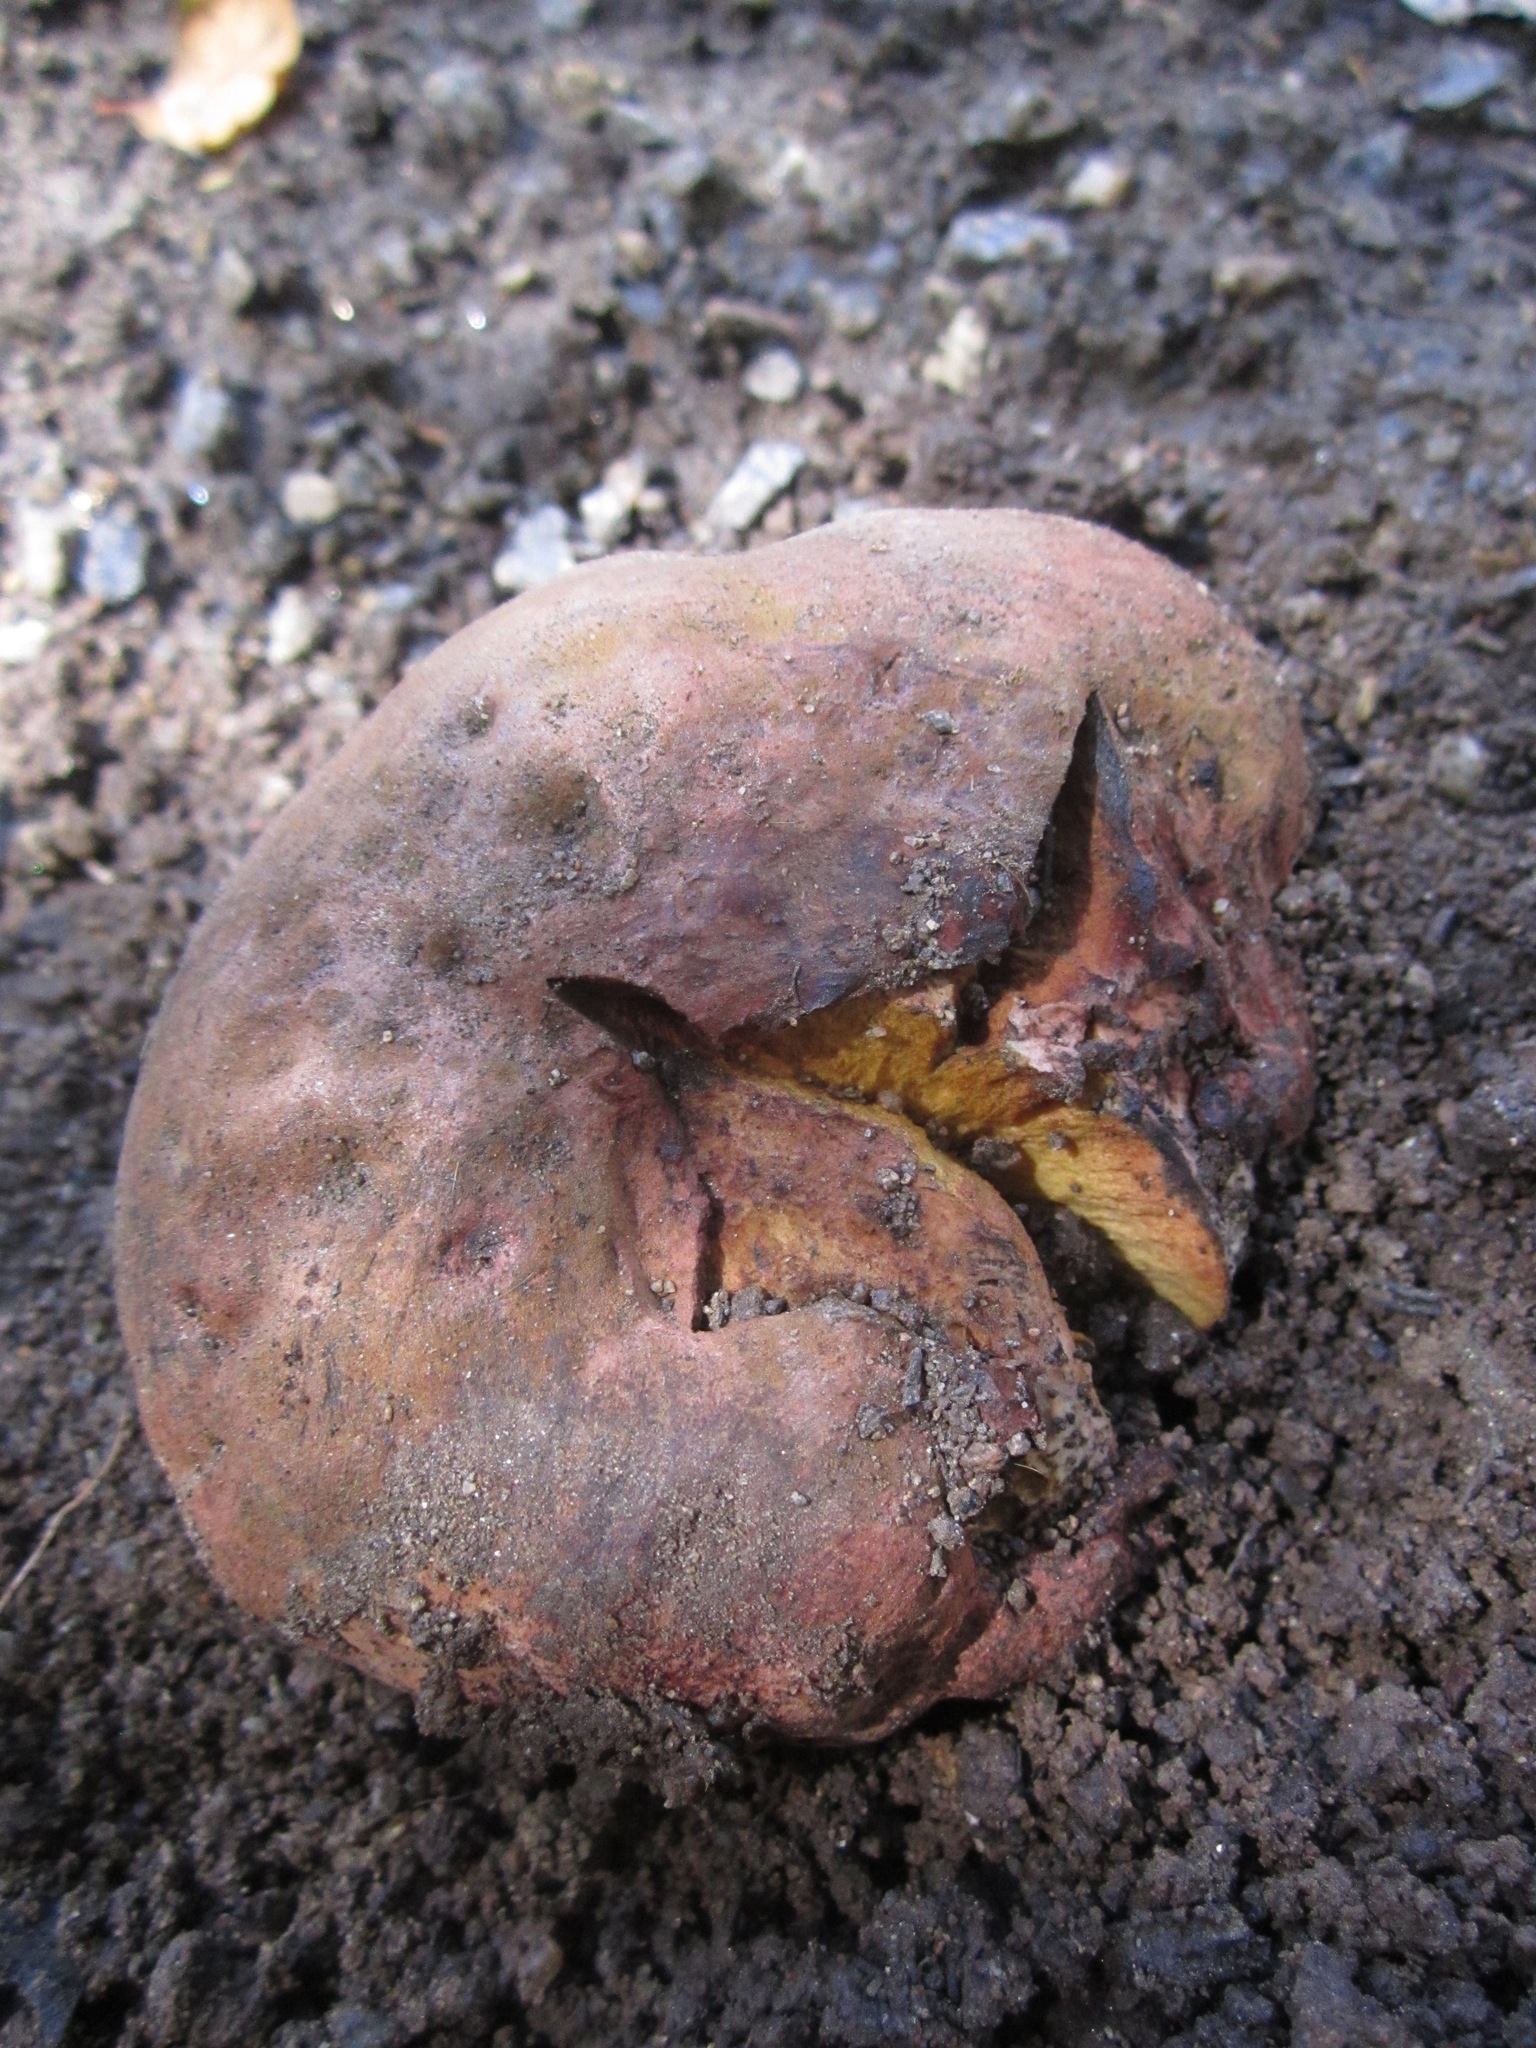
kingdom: Fungi
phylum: Basidiomycota
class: Agaricomycetes
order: Boletales
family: Boletaceae
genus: Suillellus
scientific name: Suillellus amygdalinus
